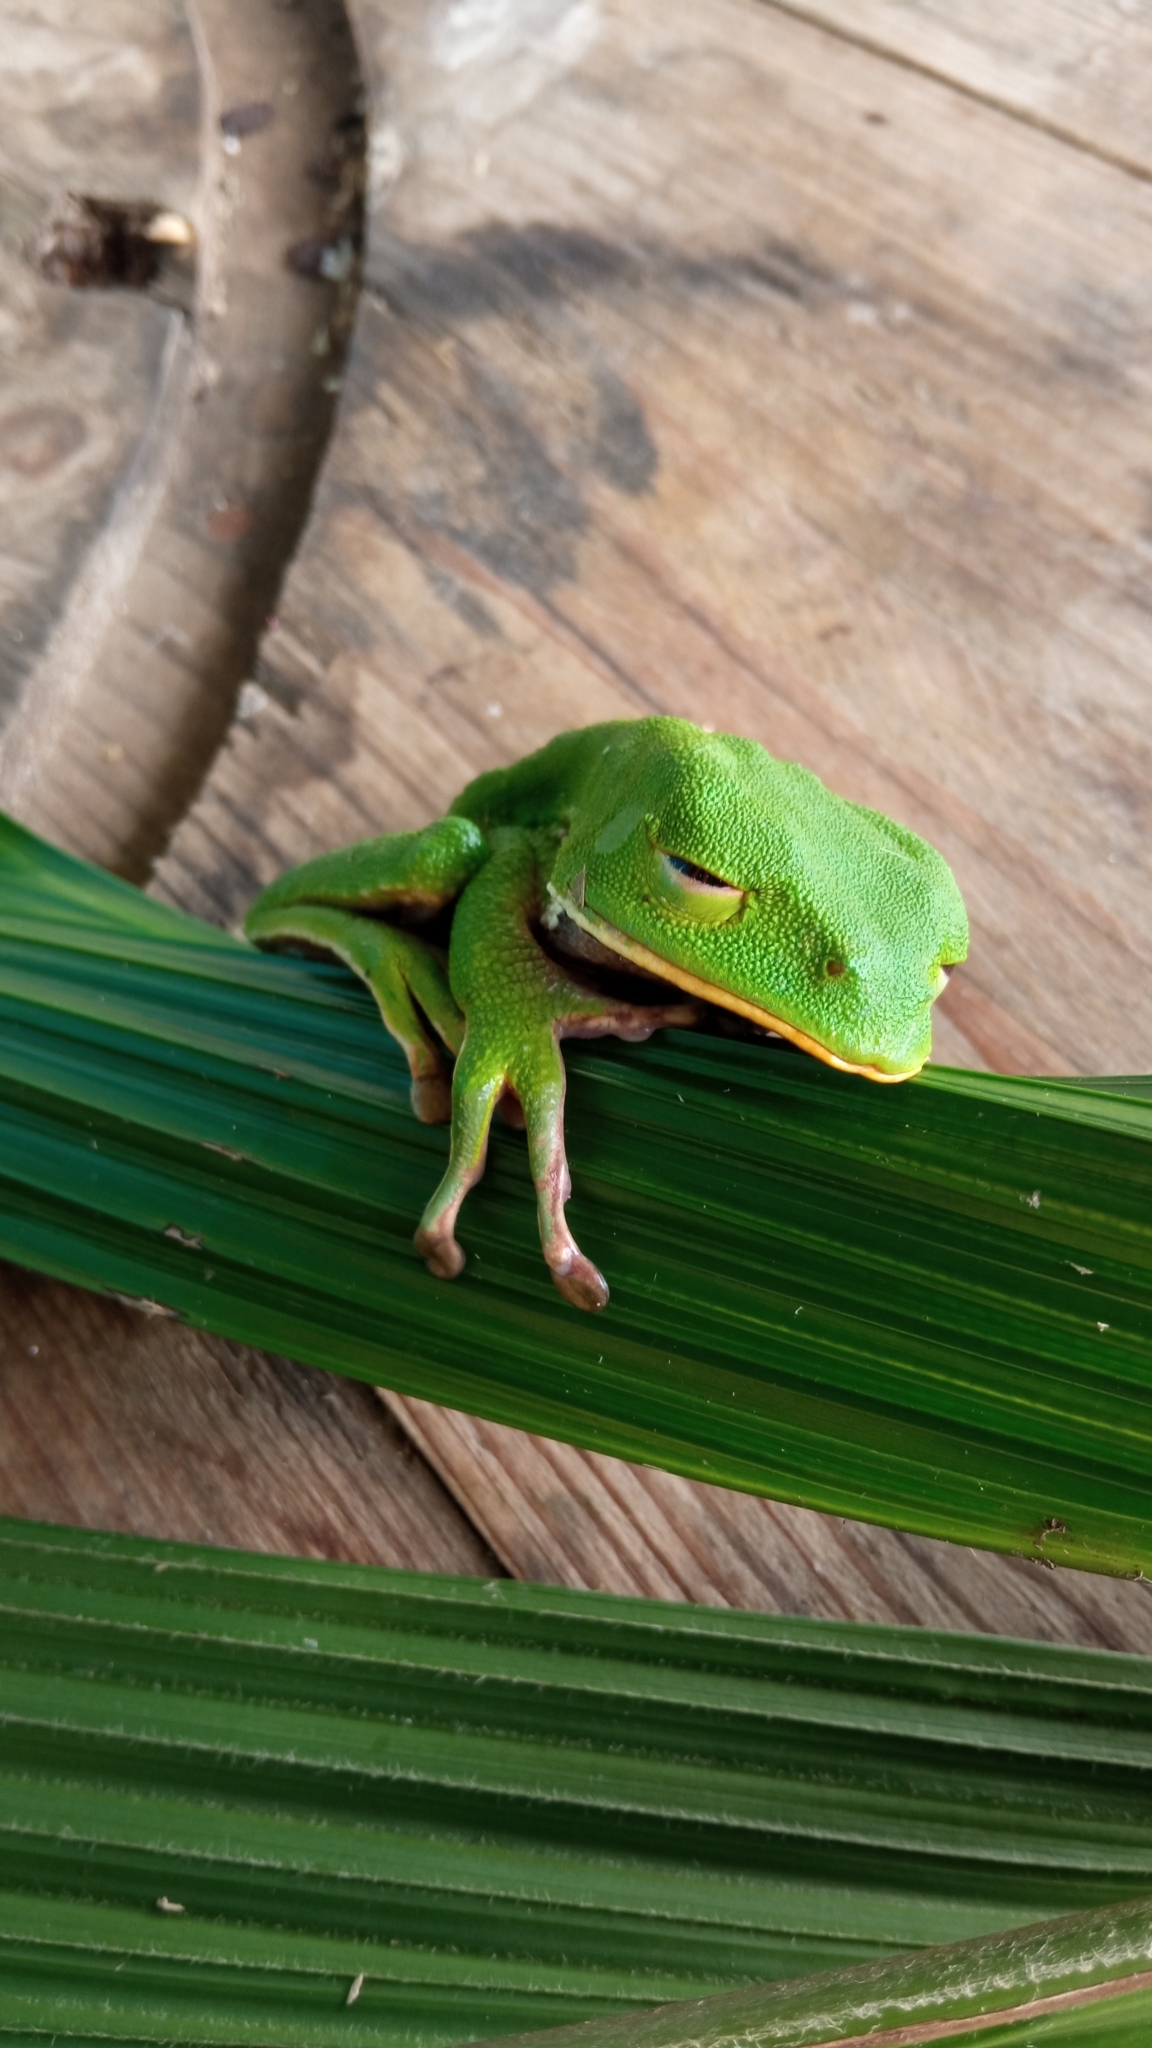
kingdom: Animalia
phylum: Chordata
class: Amphibia
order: Anura
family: Phyllomedusidae
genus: Phyllomedusa
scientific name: Phyllomedusa tarsius
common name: Brownbelly leaf frog
